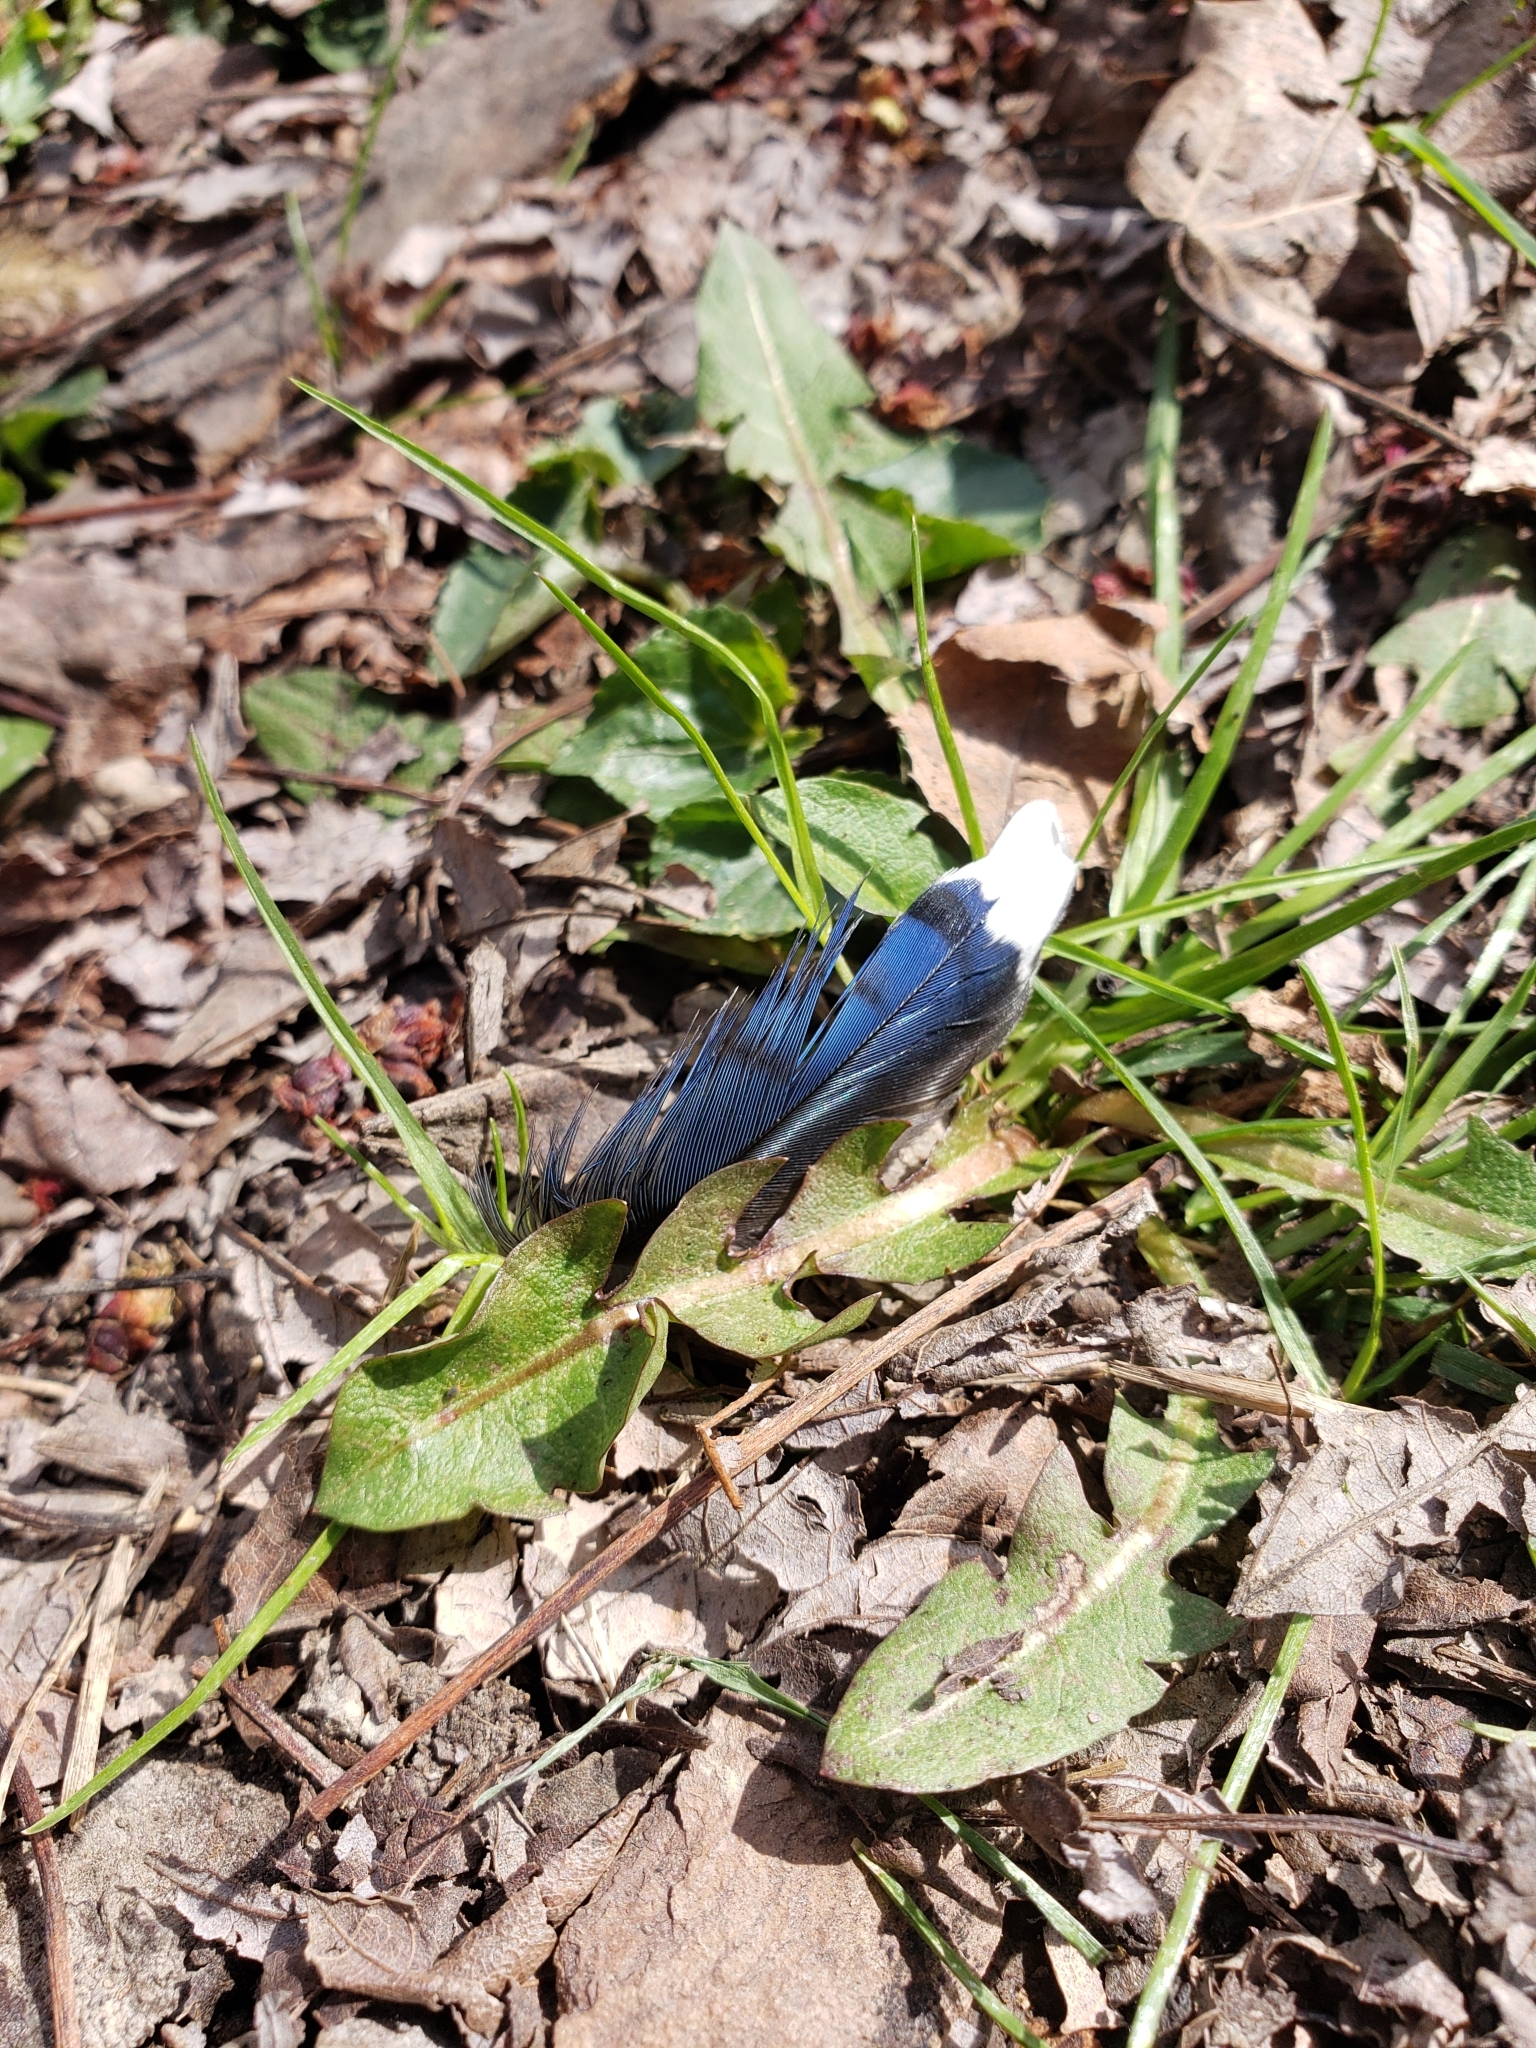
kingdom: Animalia
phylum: Chordata
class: Aves
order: Passeriformes
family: Corvidae
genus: Cyanocitta
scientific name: Cyanocitta cristata
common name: Blue jay
